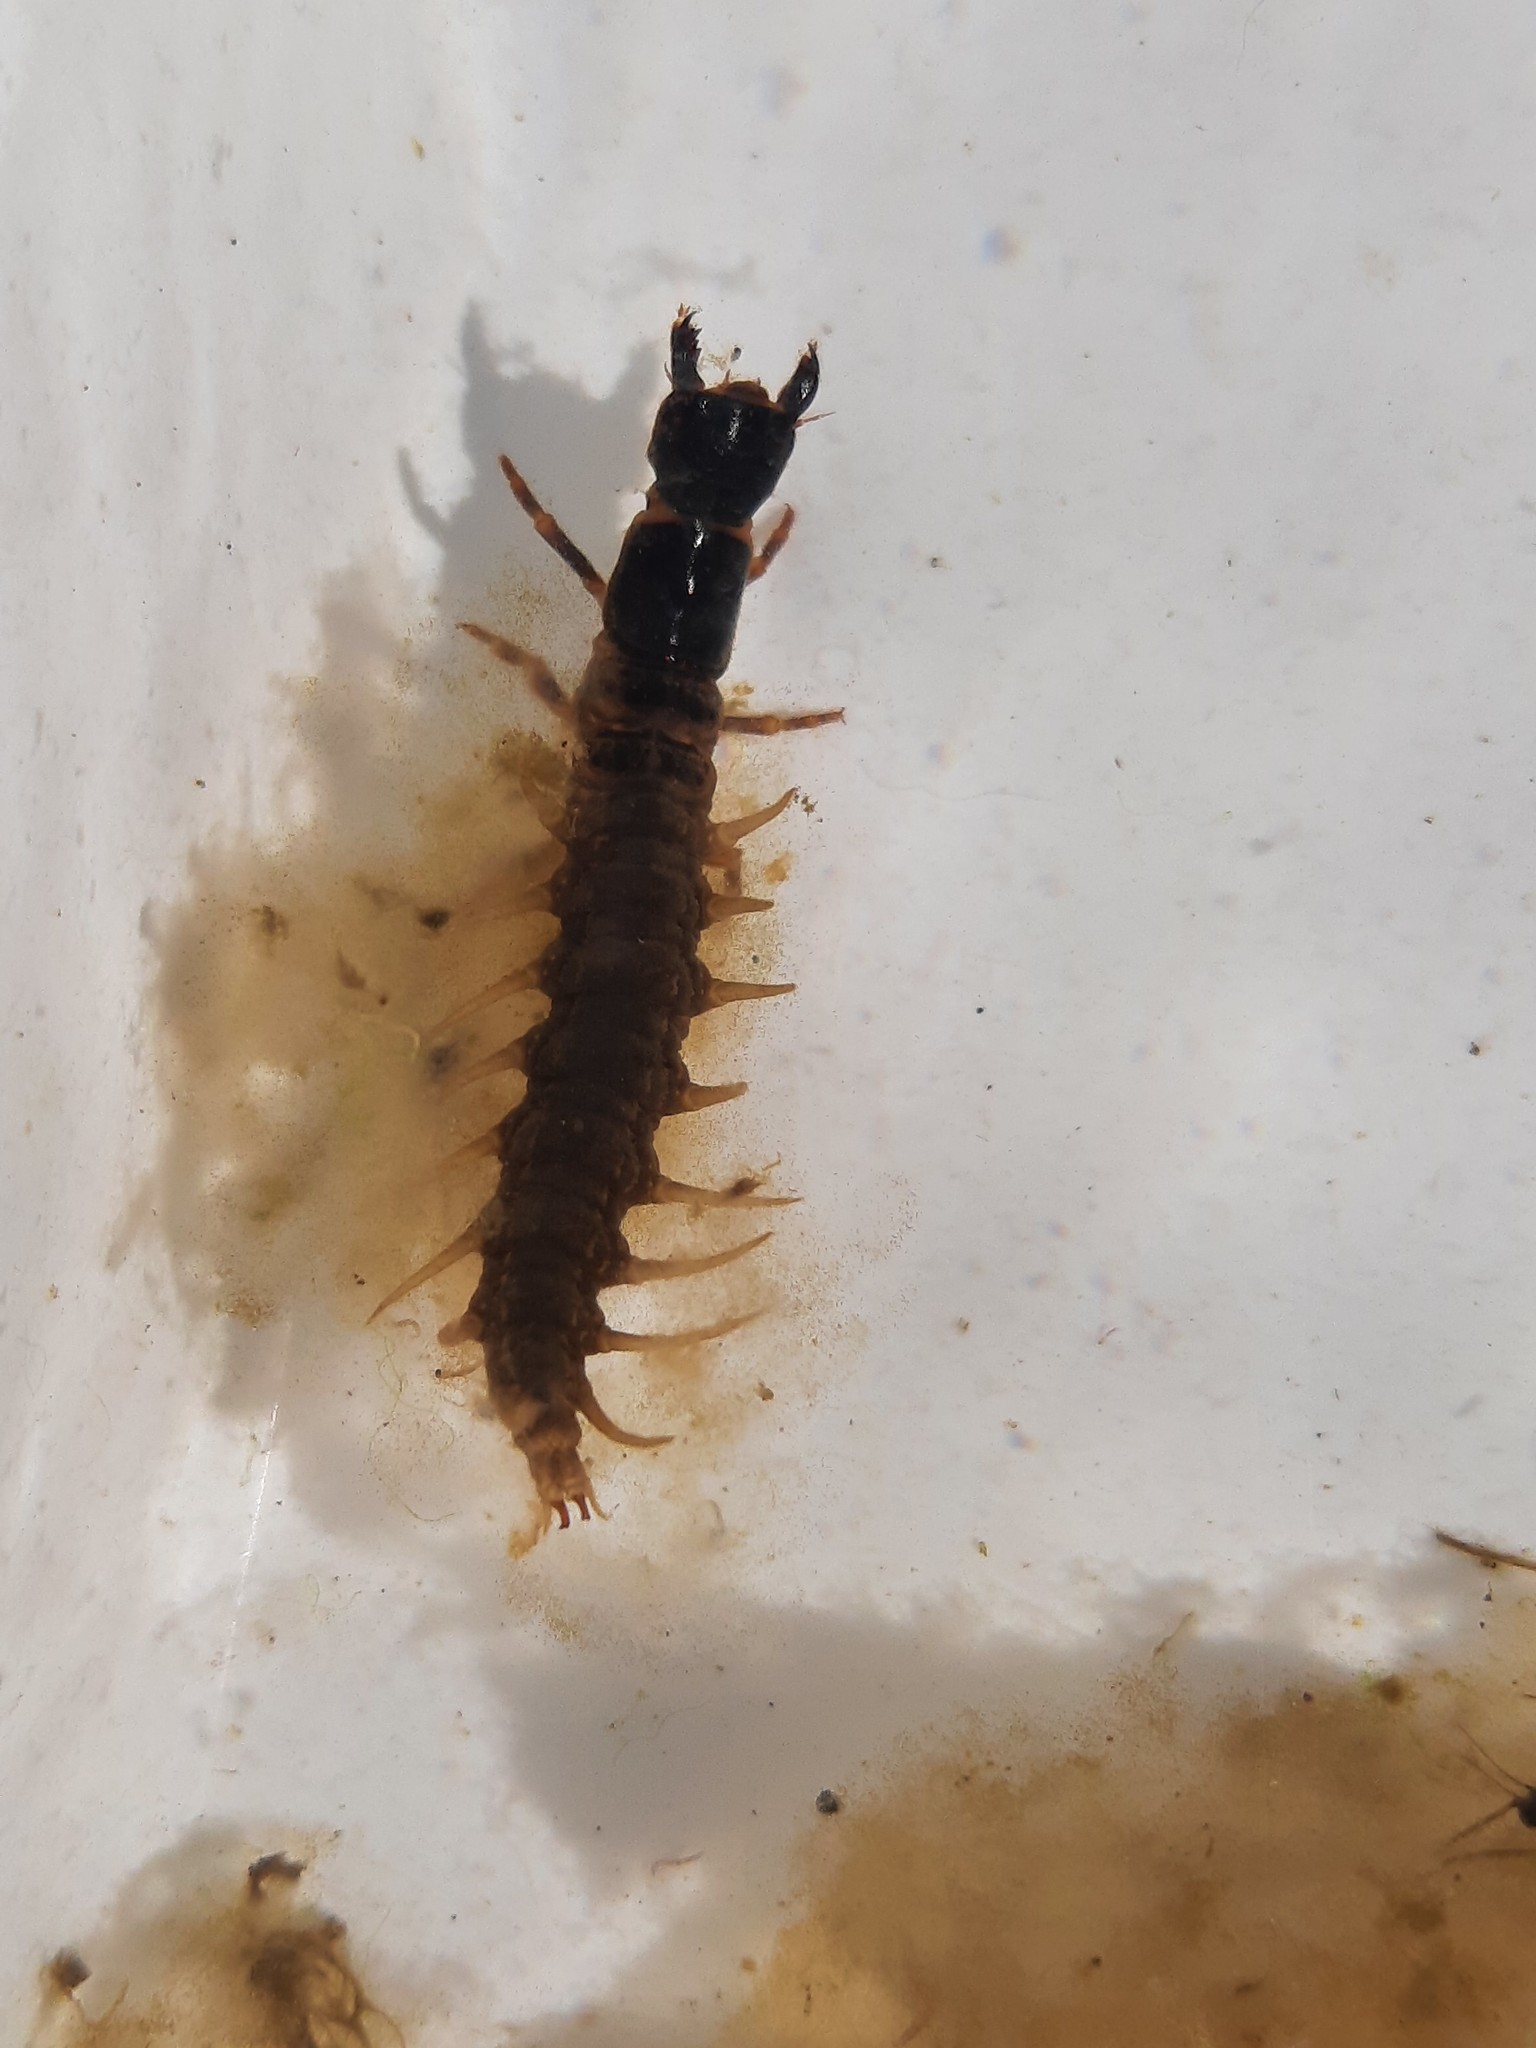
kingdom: Animalia
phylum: Arthropoda
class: Insecta
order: Megaloptera
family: Corydalidae
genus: Archichauliodes
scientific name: Archichauliodes diversus
